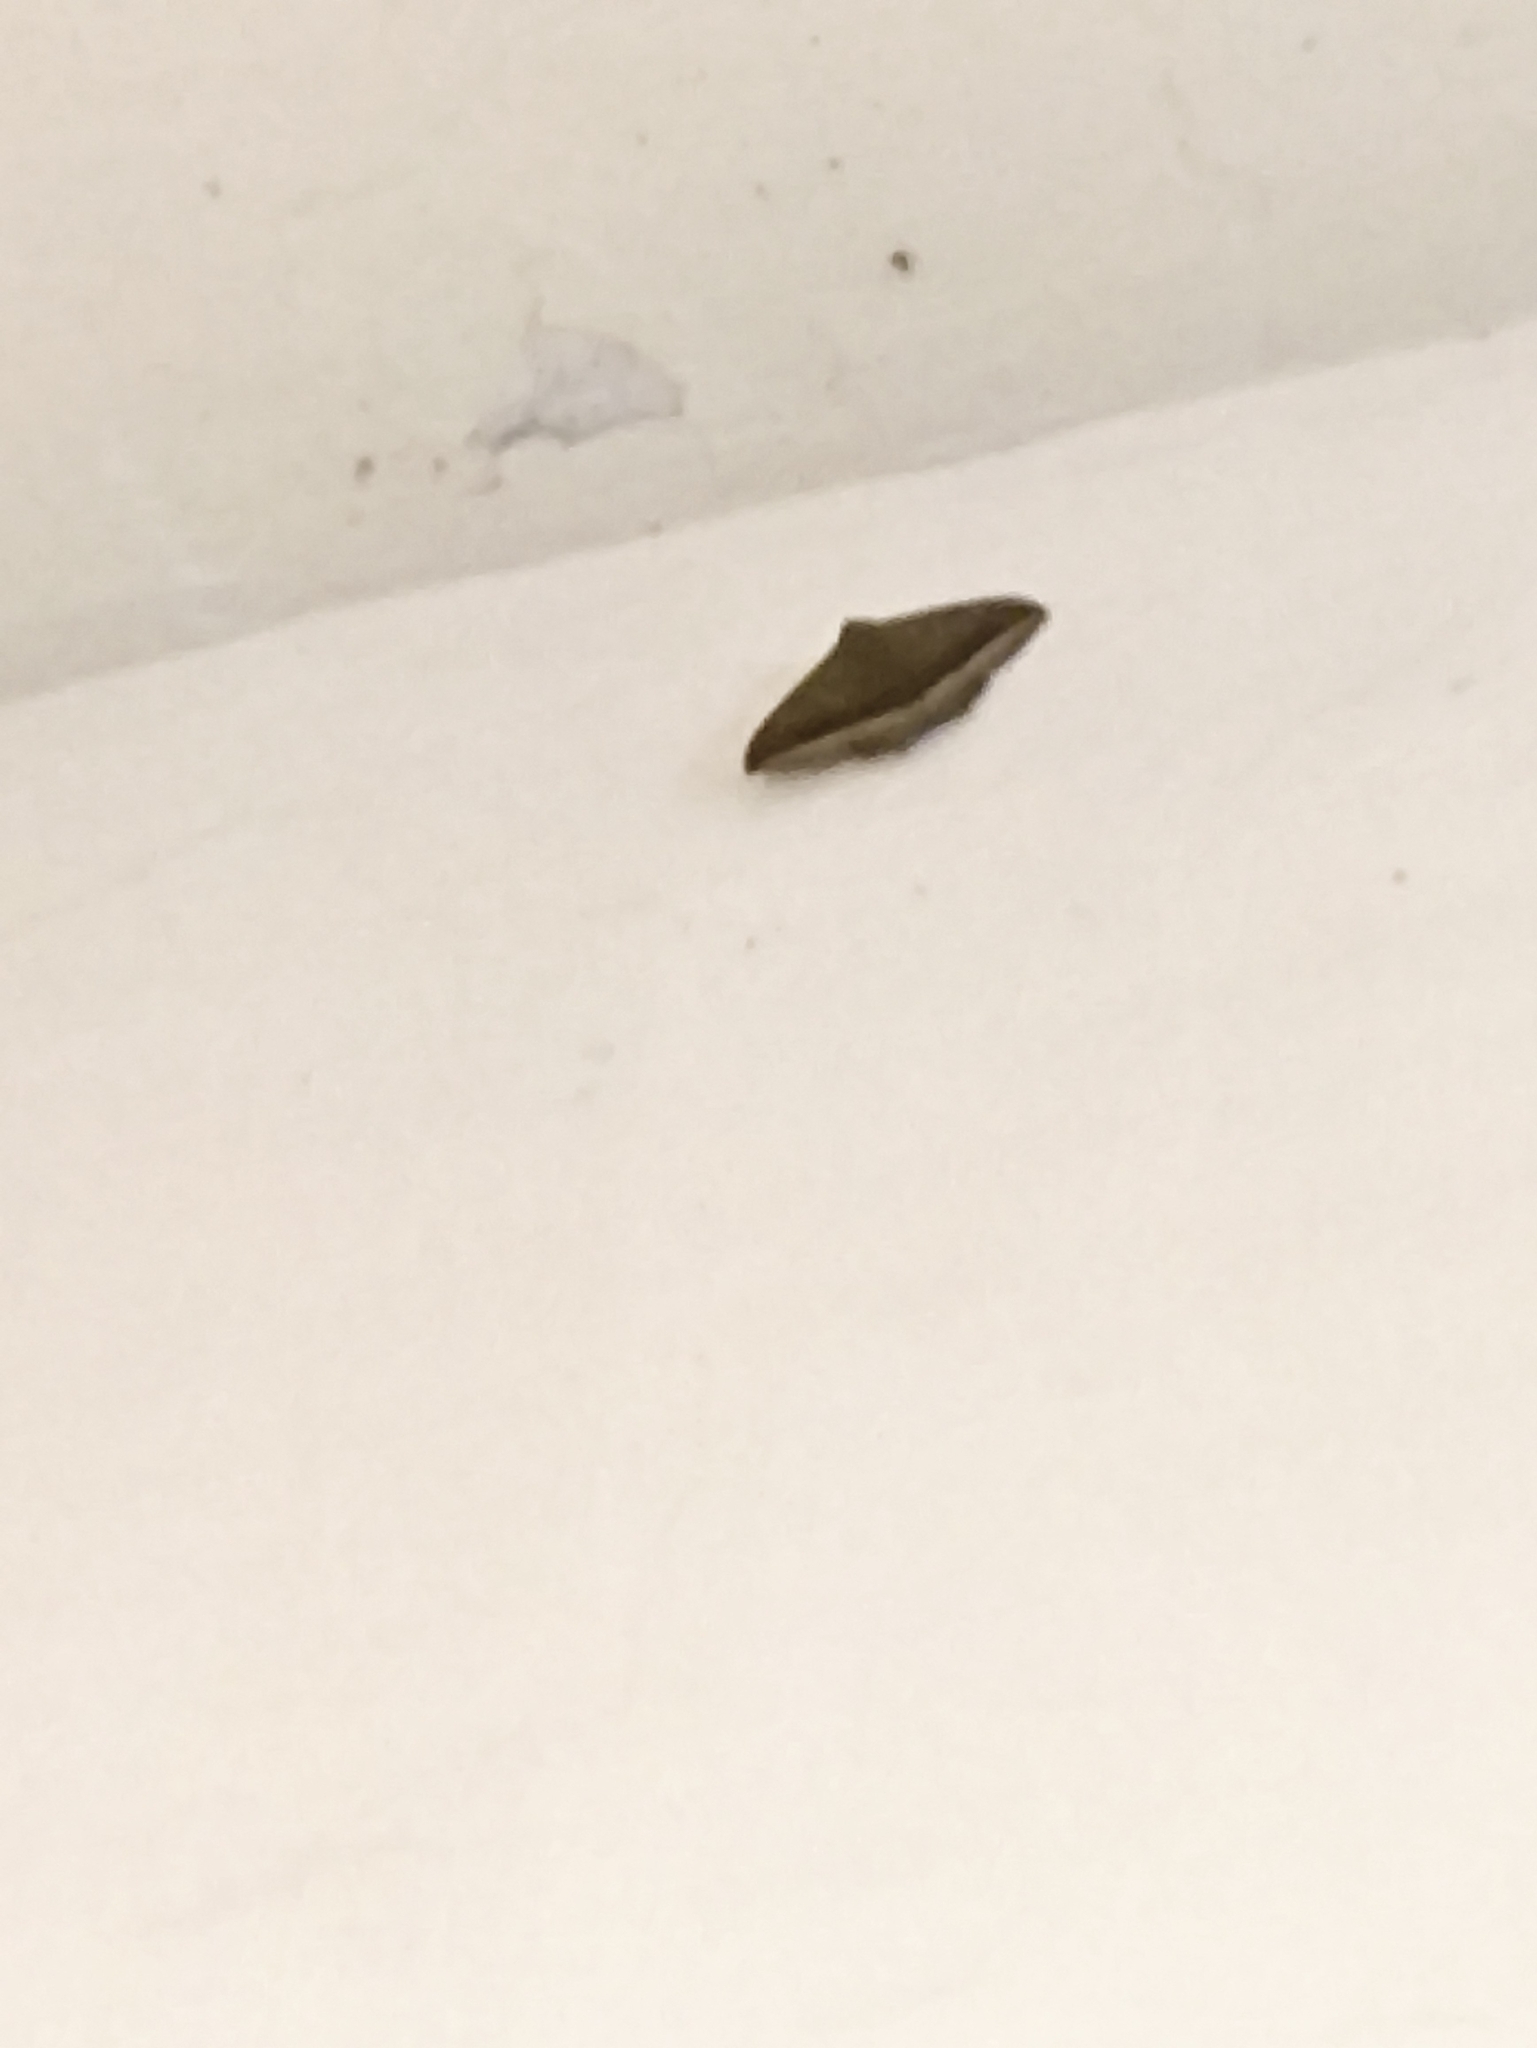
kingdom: Animalia
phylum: Arthropoda
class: Insecta
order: Lepidoptera
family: Erebidae
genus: Hulodes
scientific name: Hulodes caranea
